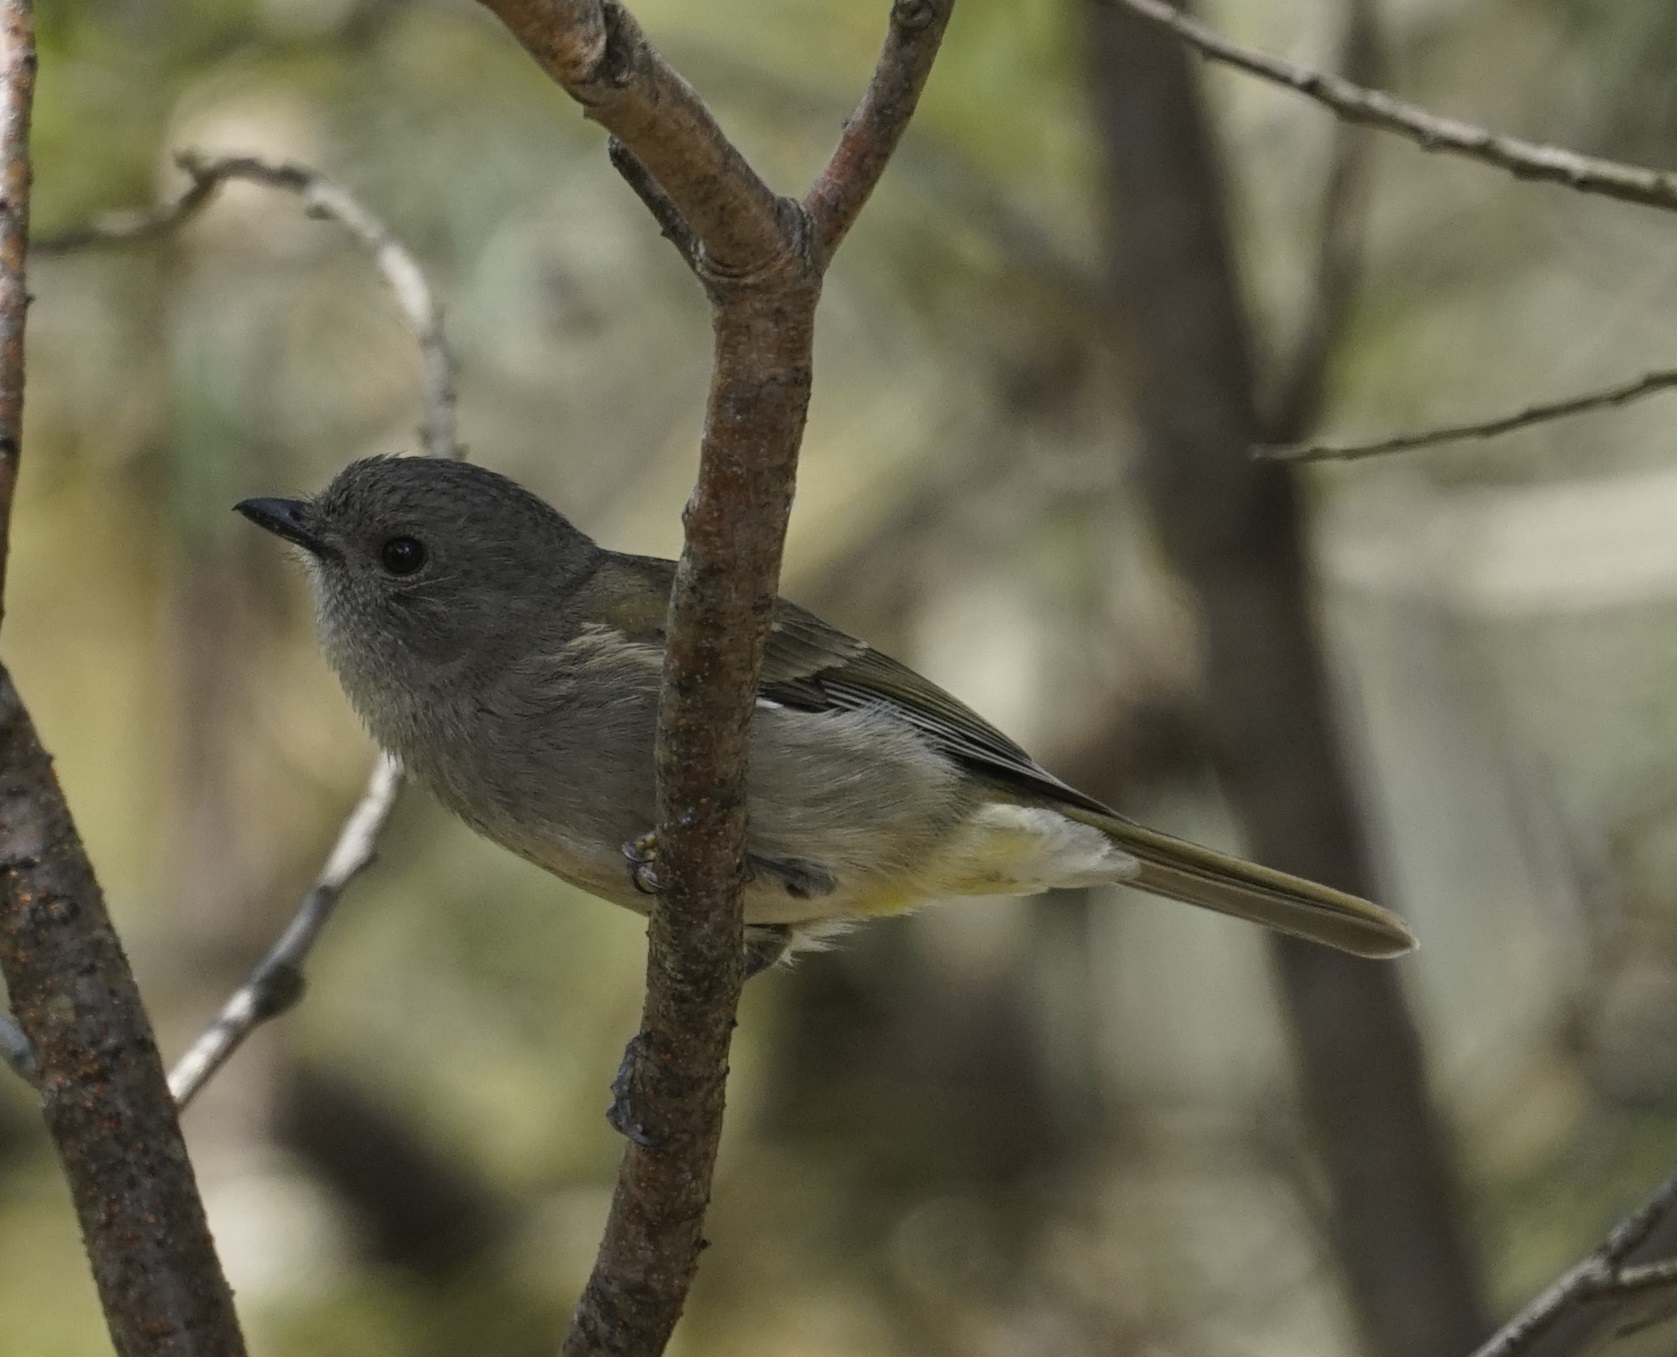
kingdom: Animalia
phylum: Chordata
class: Aves
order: Passeriformes
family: Pachycephalidae
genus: Pachycephala
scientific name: Pachycephala pectoralis
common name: Australian golden whistler
